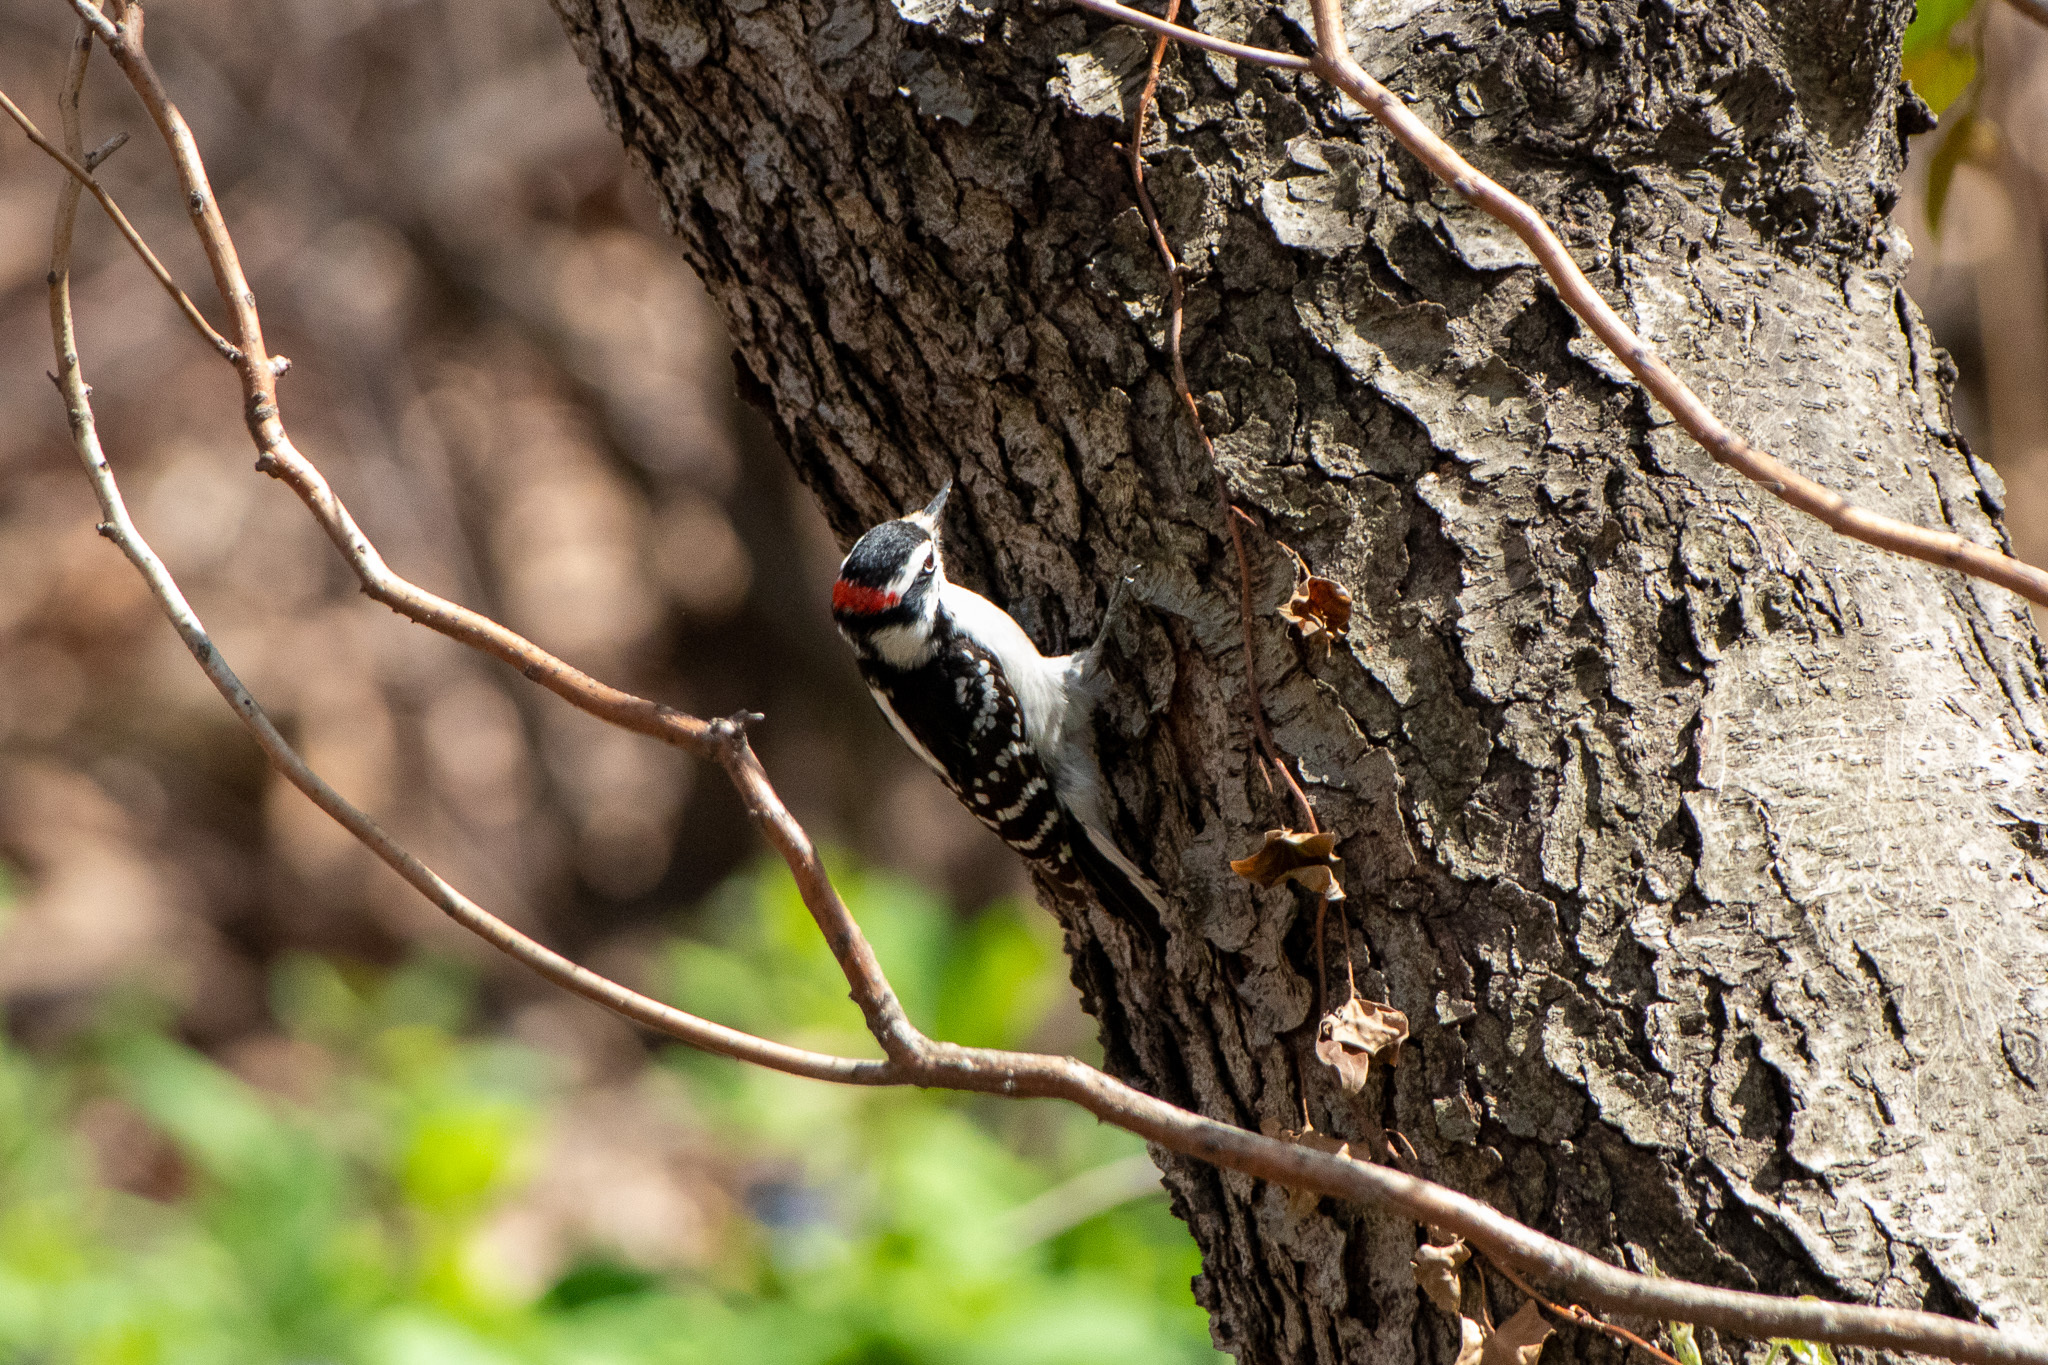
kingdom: Animalia
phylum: Chordata
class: Aves
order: Piciformes
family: Picidae
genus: Dryobates
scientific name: Dryobates pubescens
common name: Downy woodpecker
